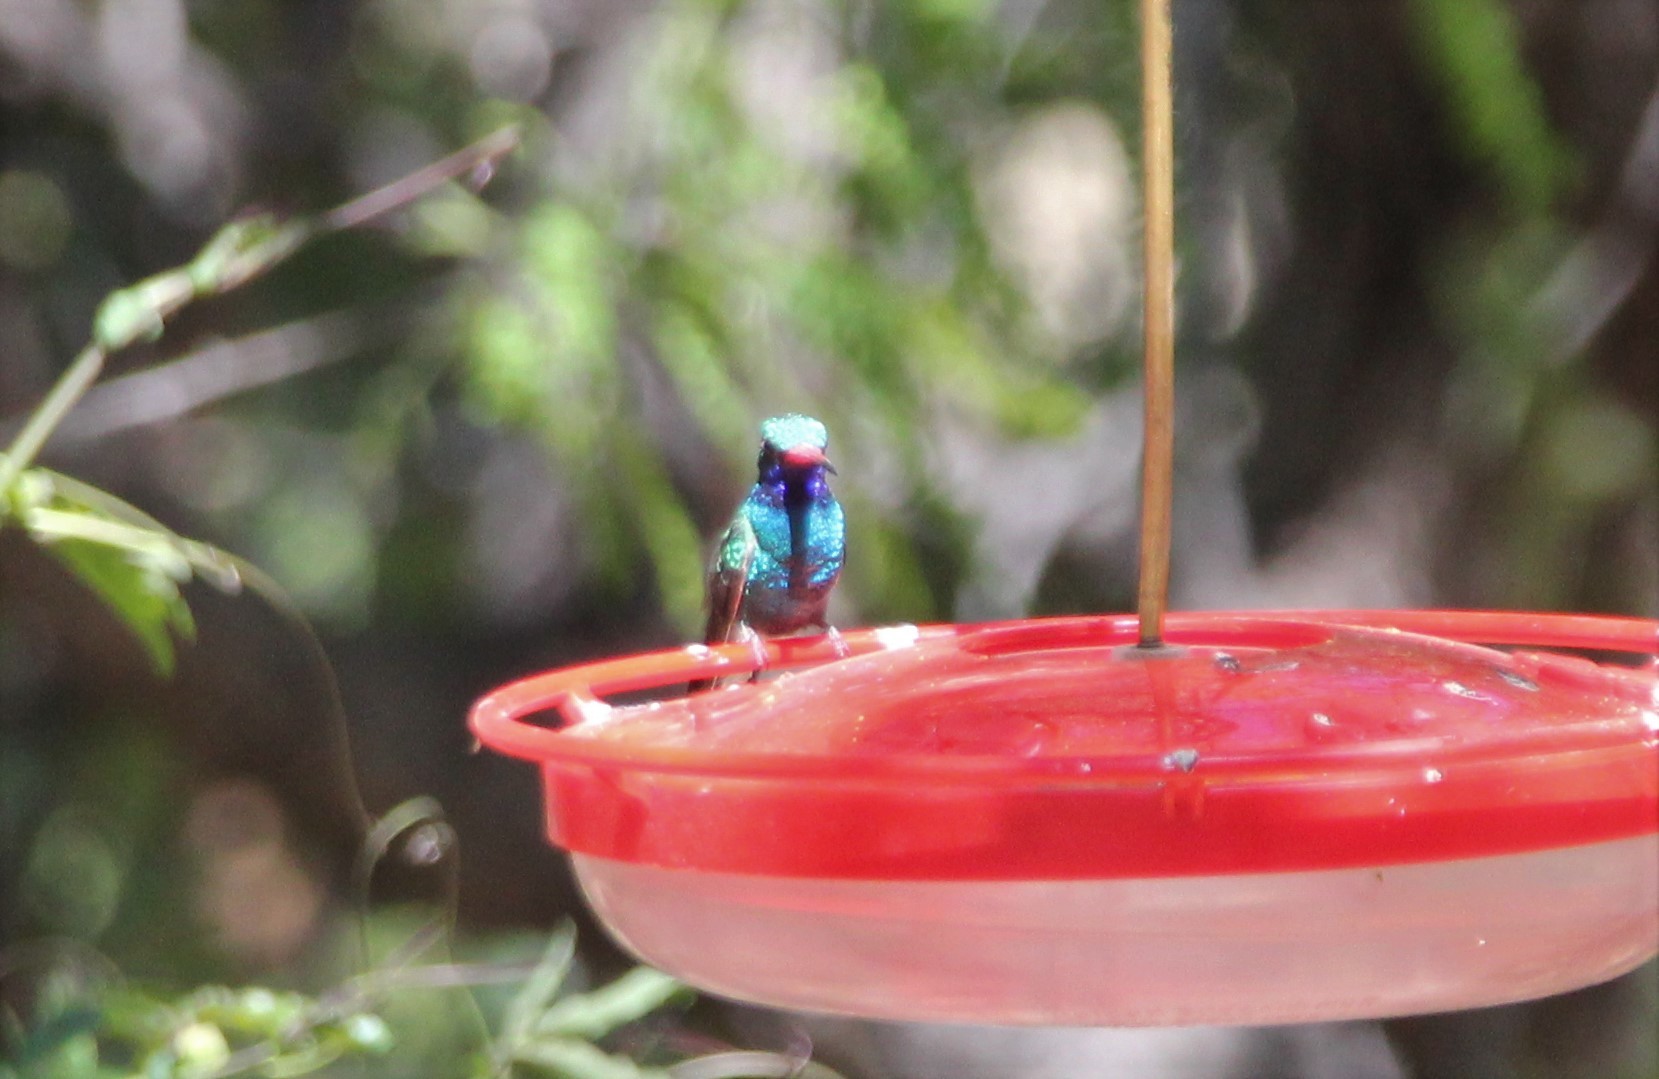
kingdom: Animalia
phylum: Chordata
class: Aves
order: Apodiformes
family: Trochilidae
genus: Cynanthus
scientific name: Cynanthus latirostris
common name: Broad-billed hummingbird
